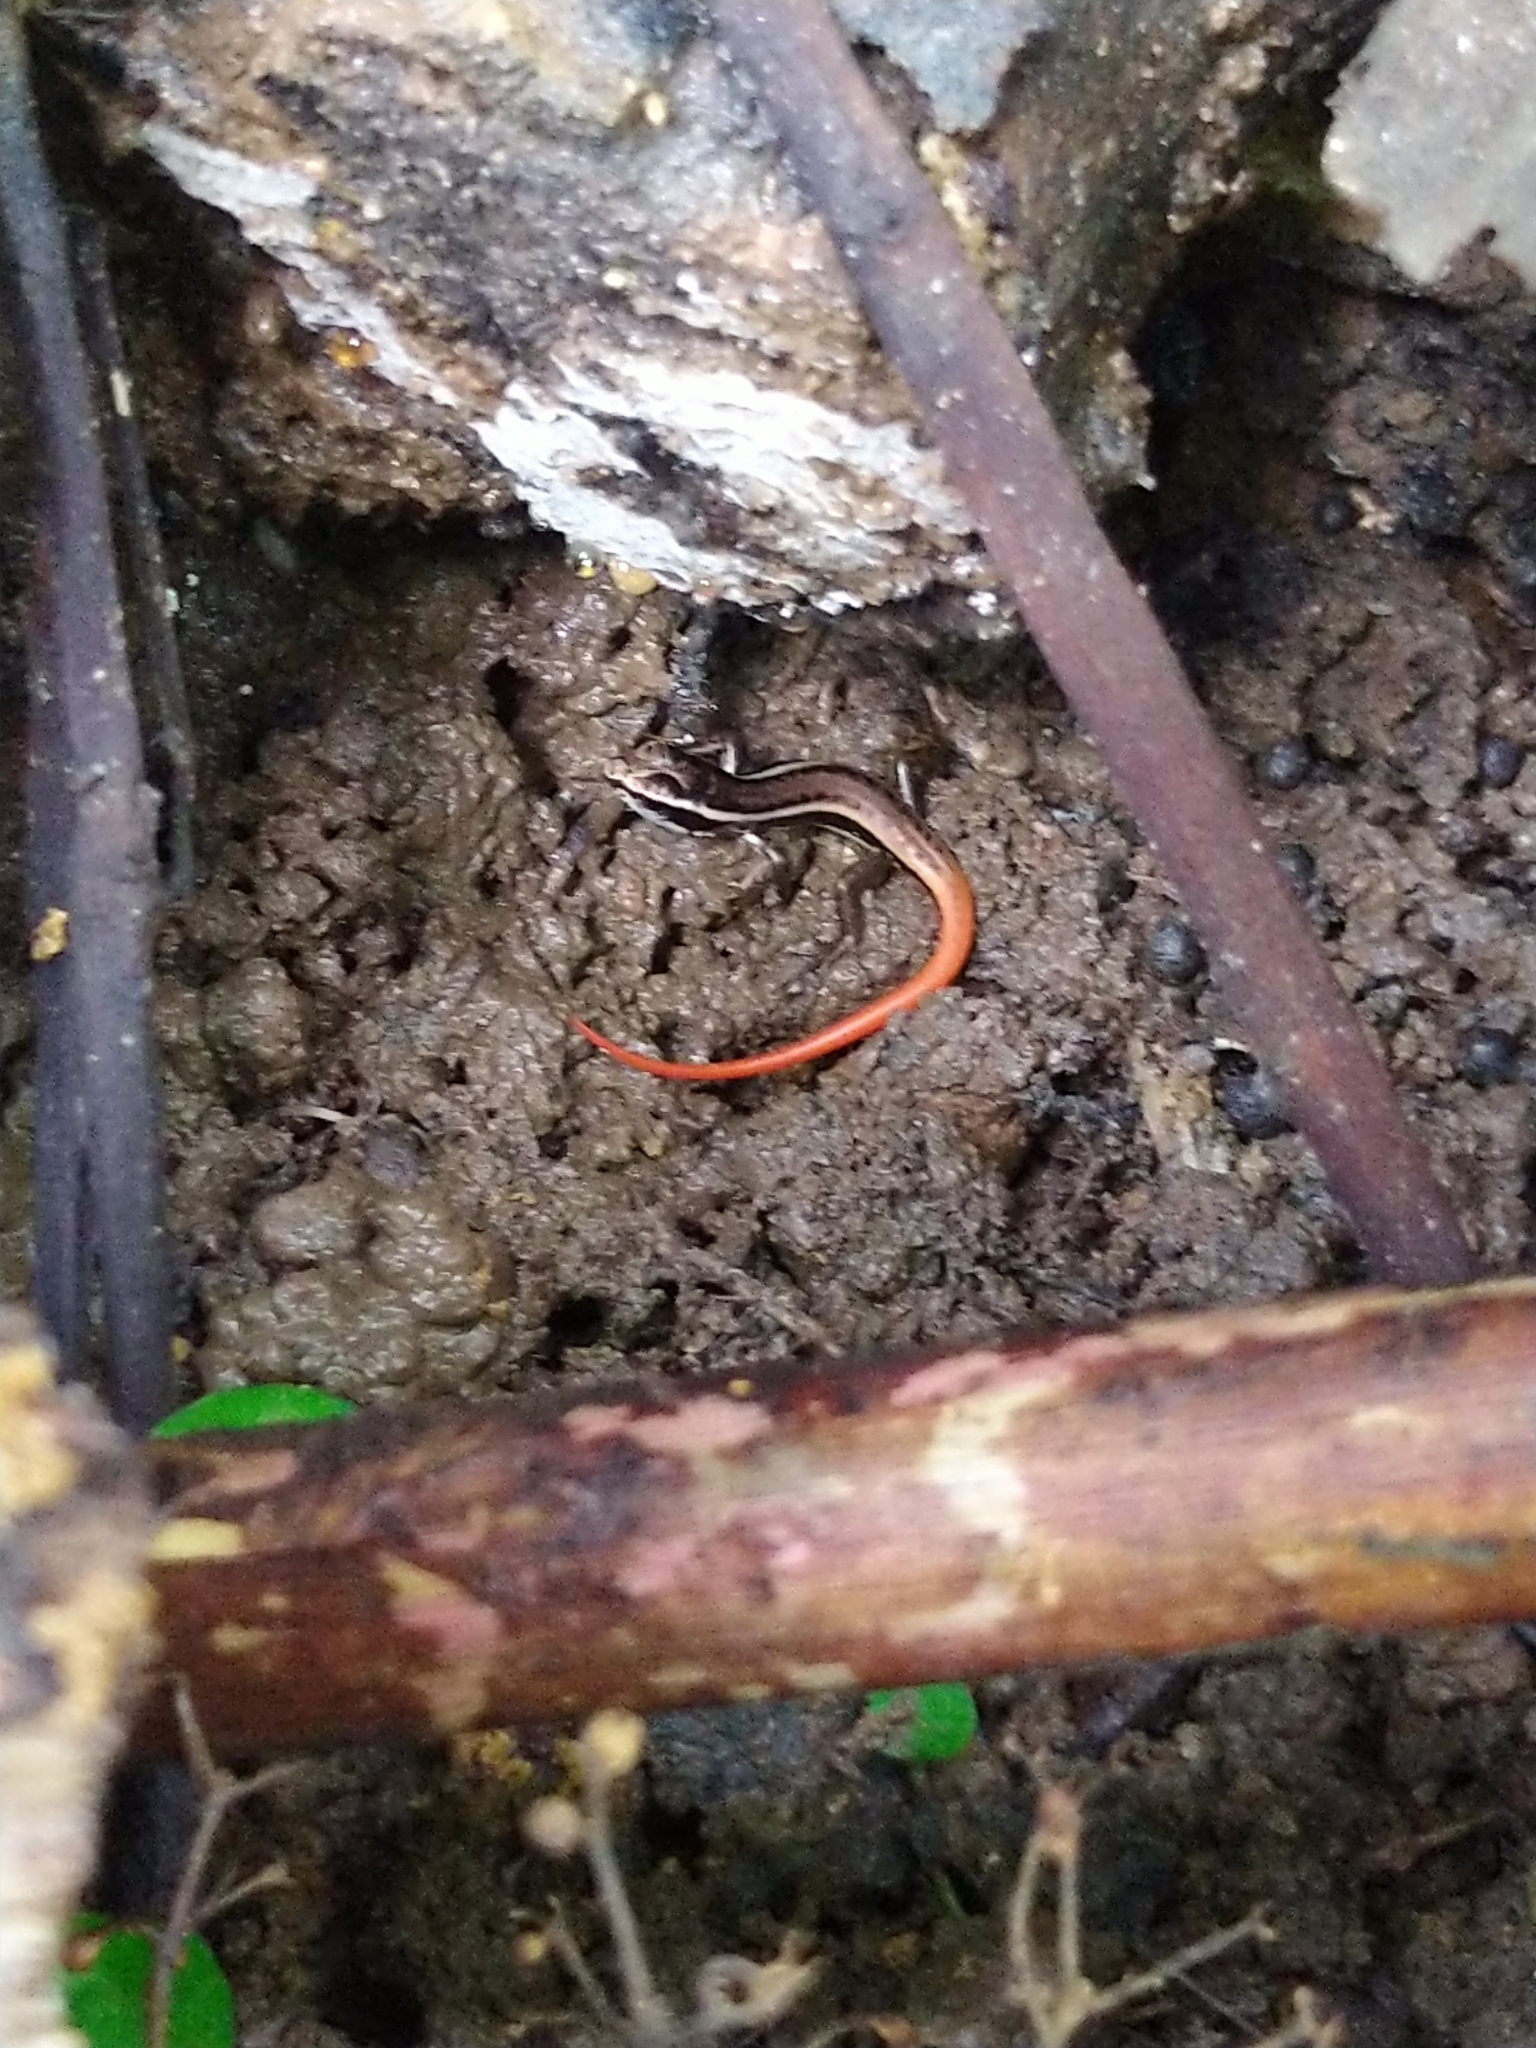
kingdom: Animalia
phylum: Chordata
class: Squamata
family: Scincidae
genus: Sphenomorphus
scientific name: Sphenomorphus dussumieri
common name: Dussumier's forest skink
